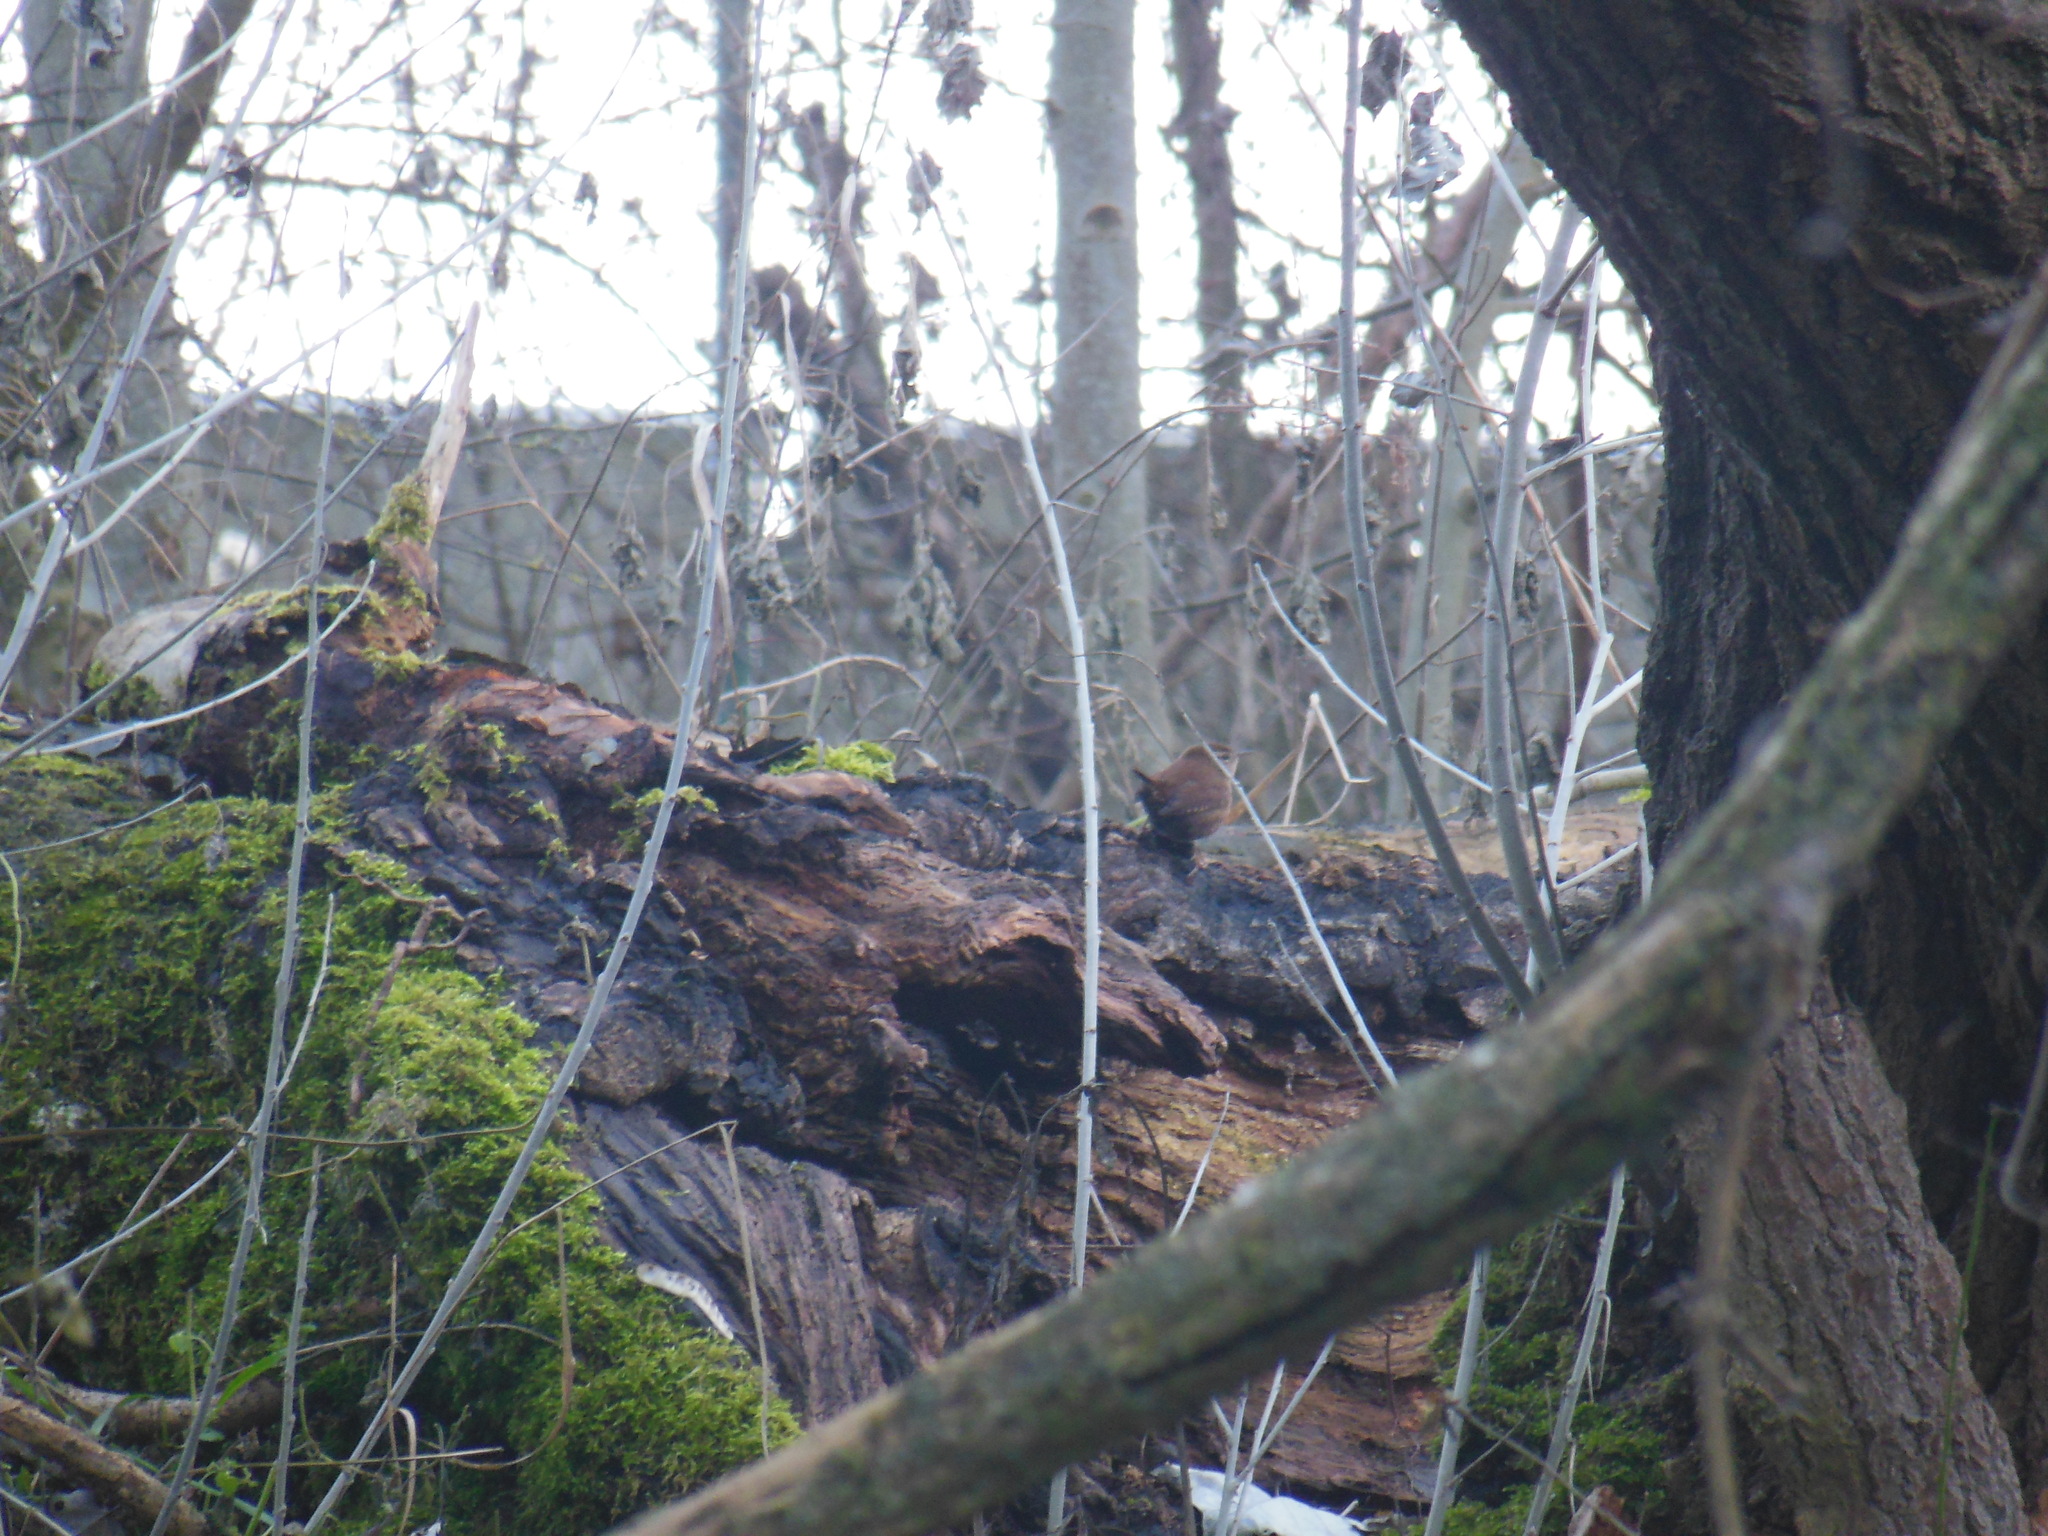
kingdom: Animalia
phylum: Chordata
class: Aves
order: Passeriformes
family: Troglodytidae
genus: Troglodytes
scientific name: Troglodytes troglodytes
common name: Eurasian wren
